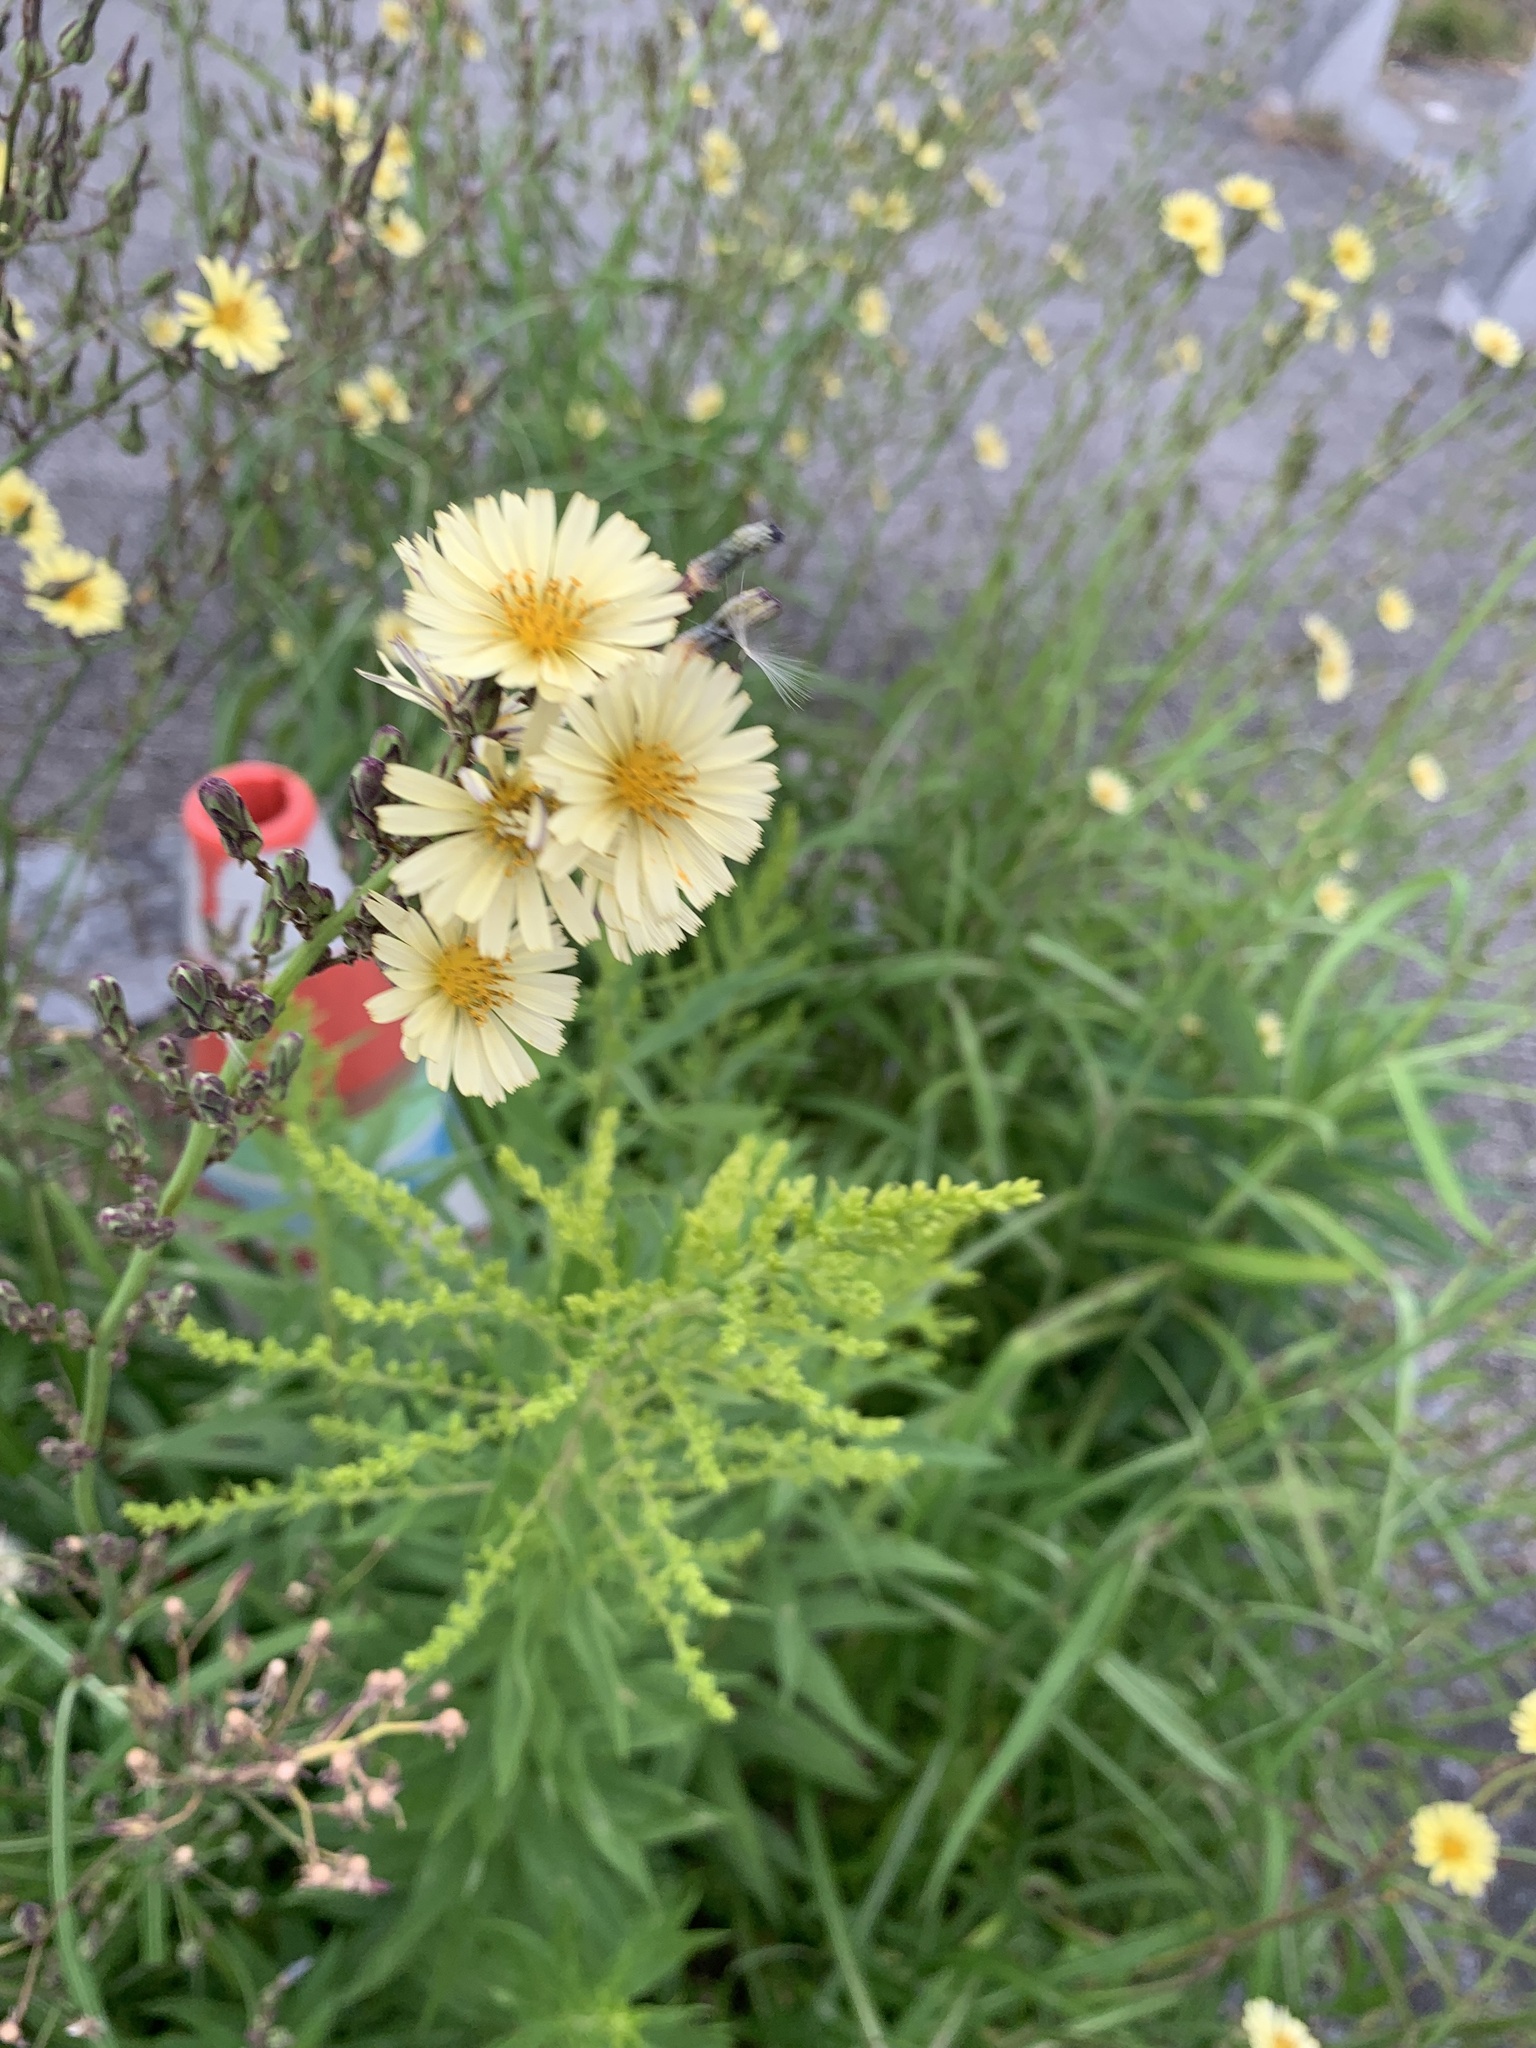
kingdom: Plantae
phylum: Tracheophyta
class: Magnoliopsida
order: Asterales
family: Asteraceae
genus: Lactuca
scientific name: Lactuca indica
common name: Wild lettuce
